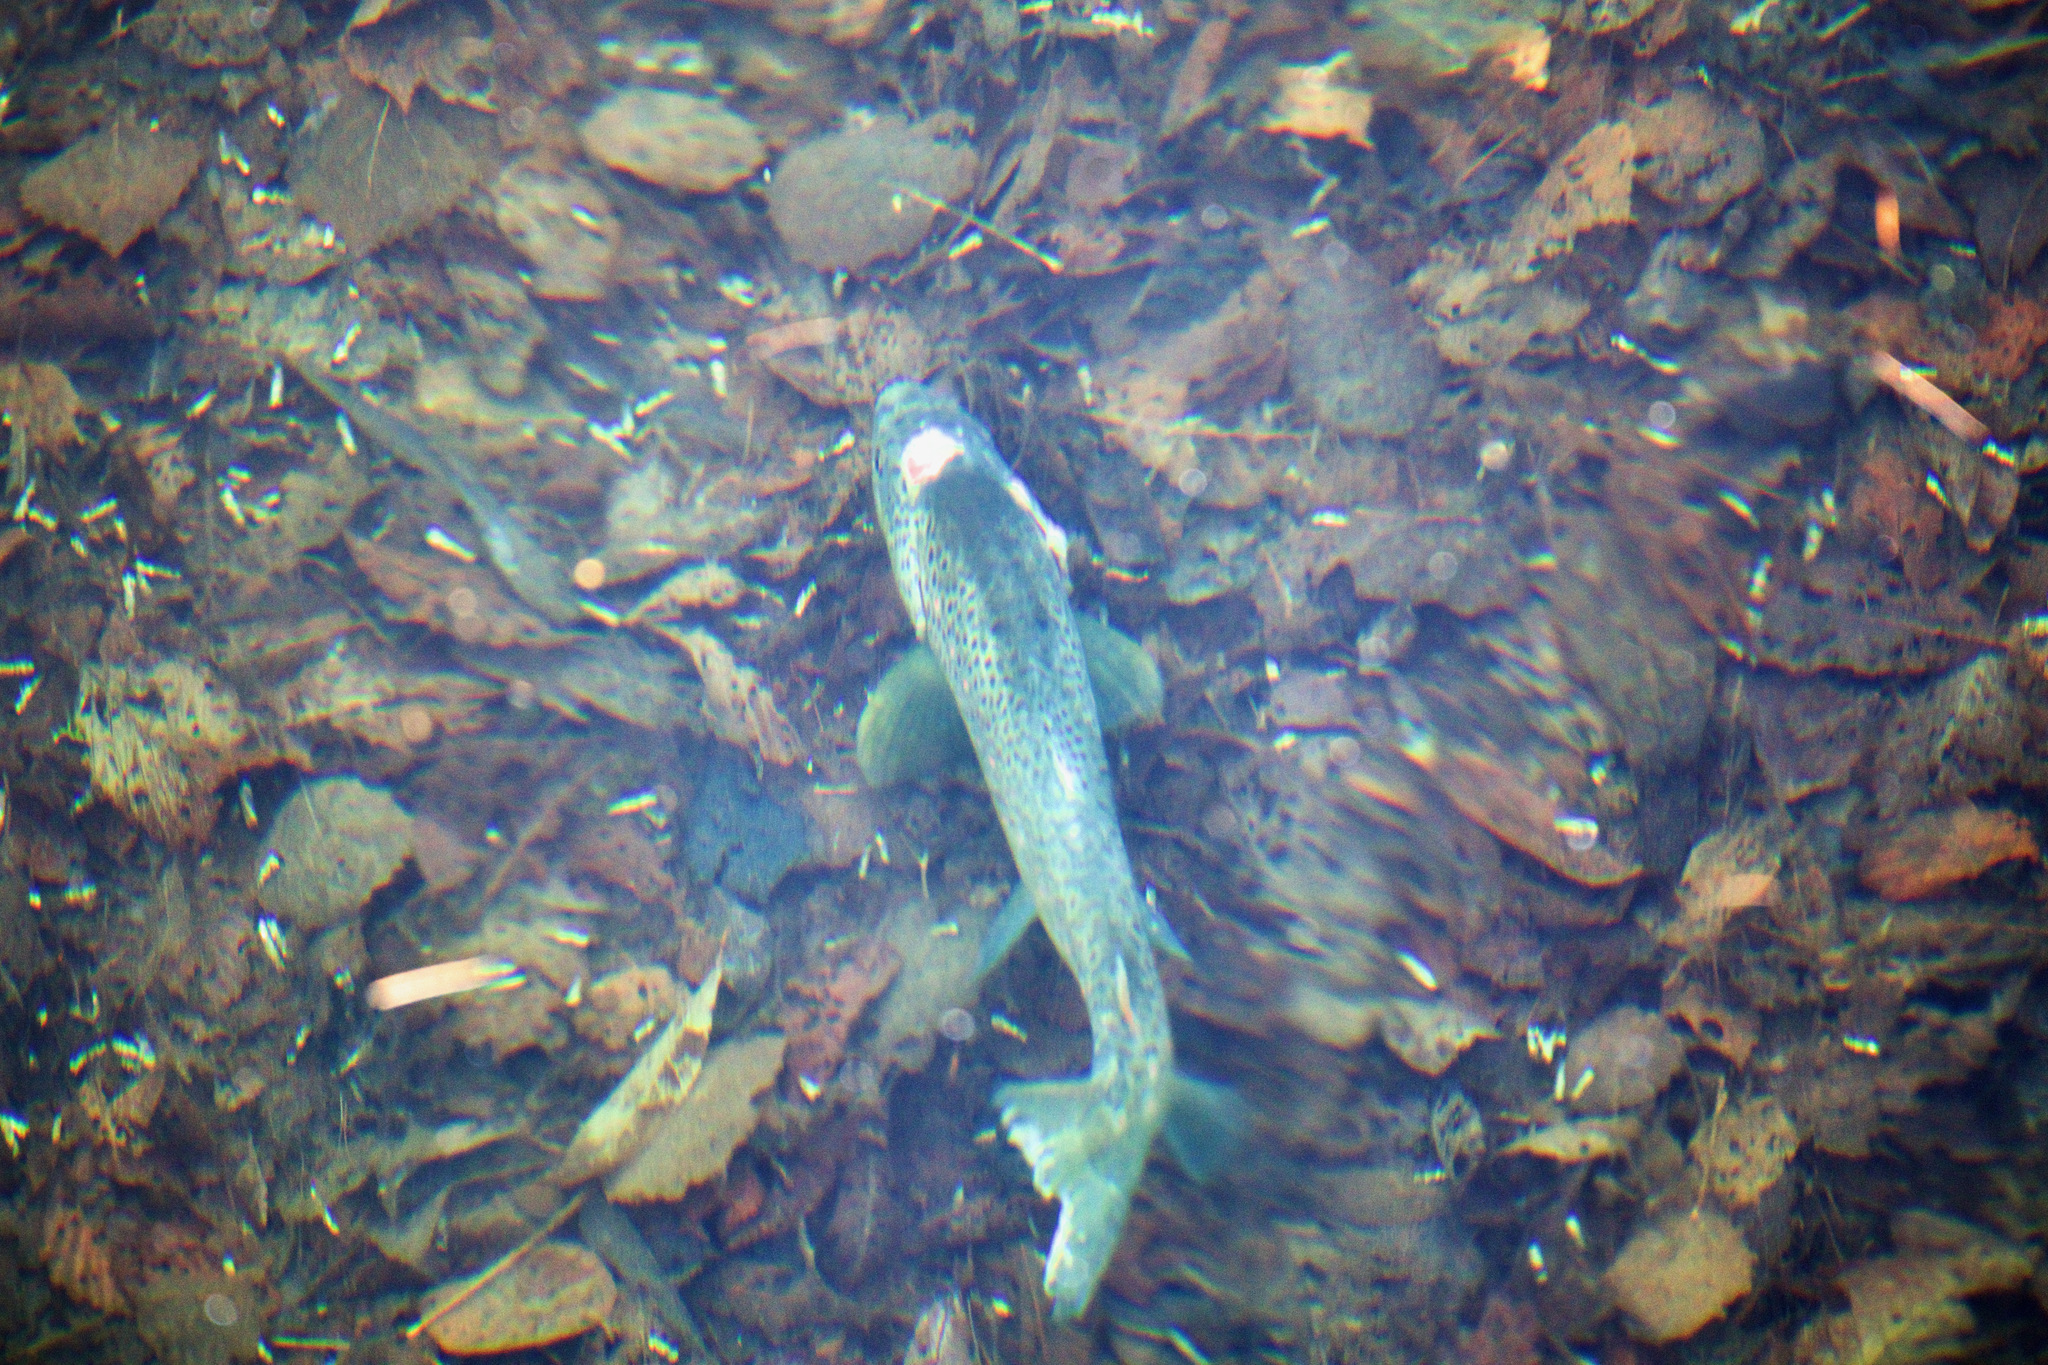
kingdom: Animalia
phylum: Chordata
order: Salmoniformes
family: Salmonidae
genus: Salmo
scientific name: Salmo trutta
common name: Brown trout
